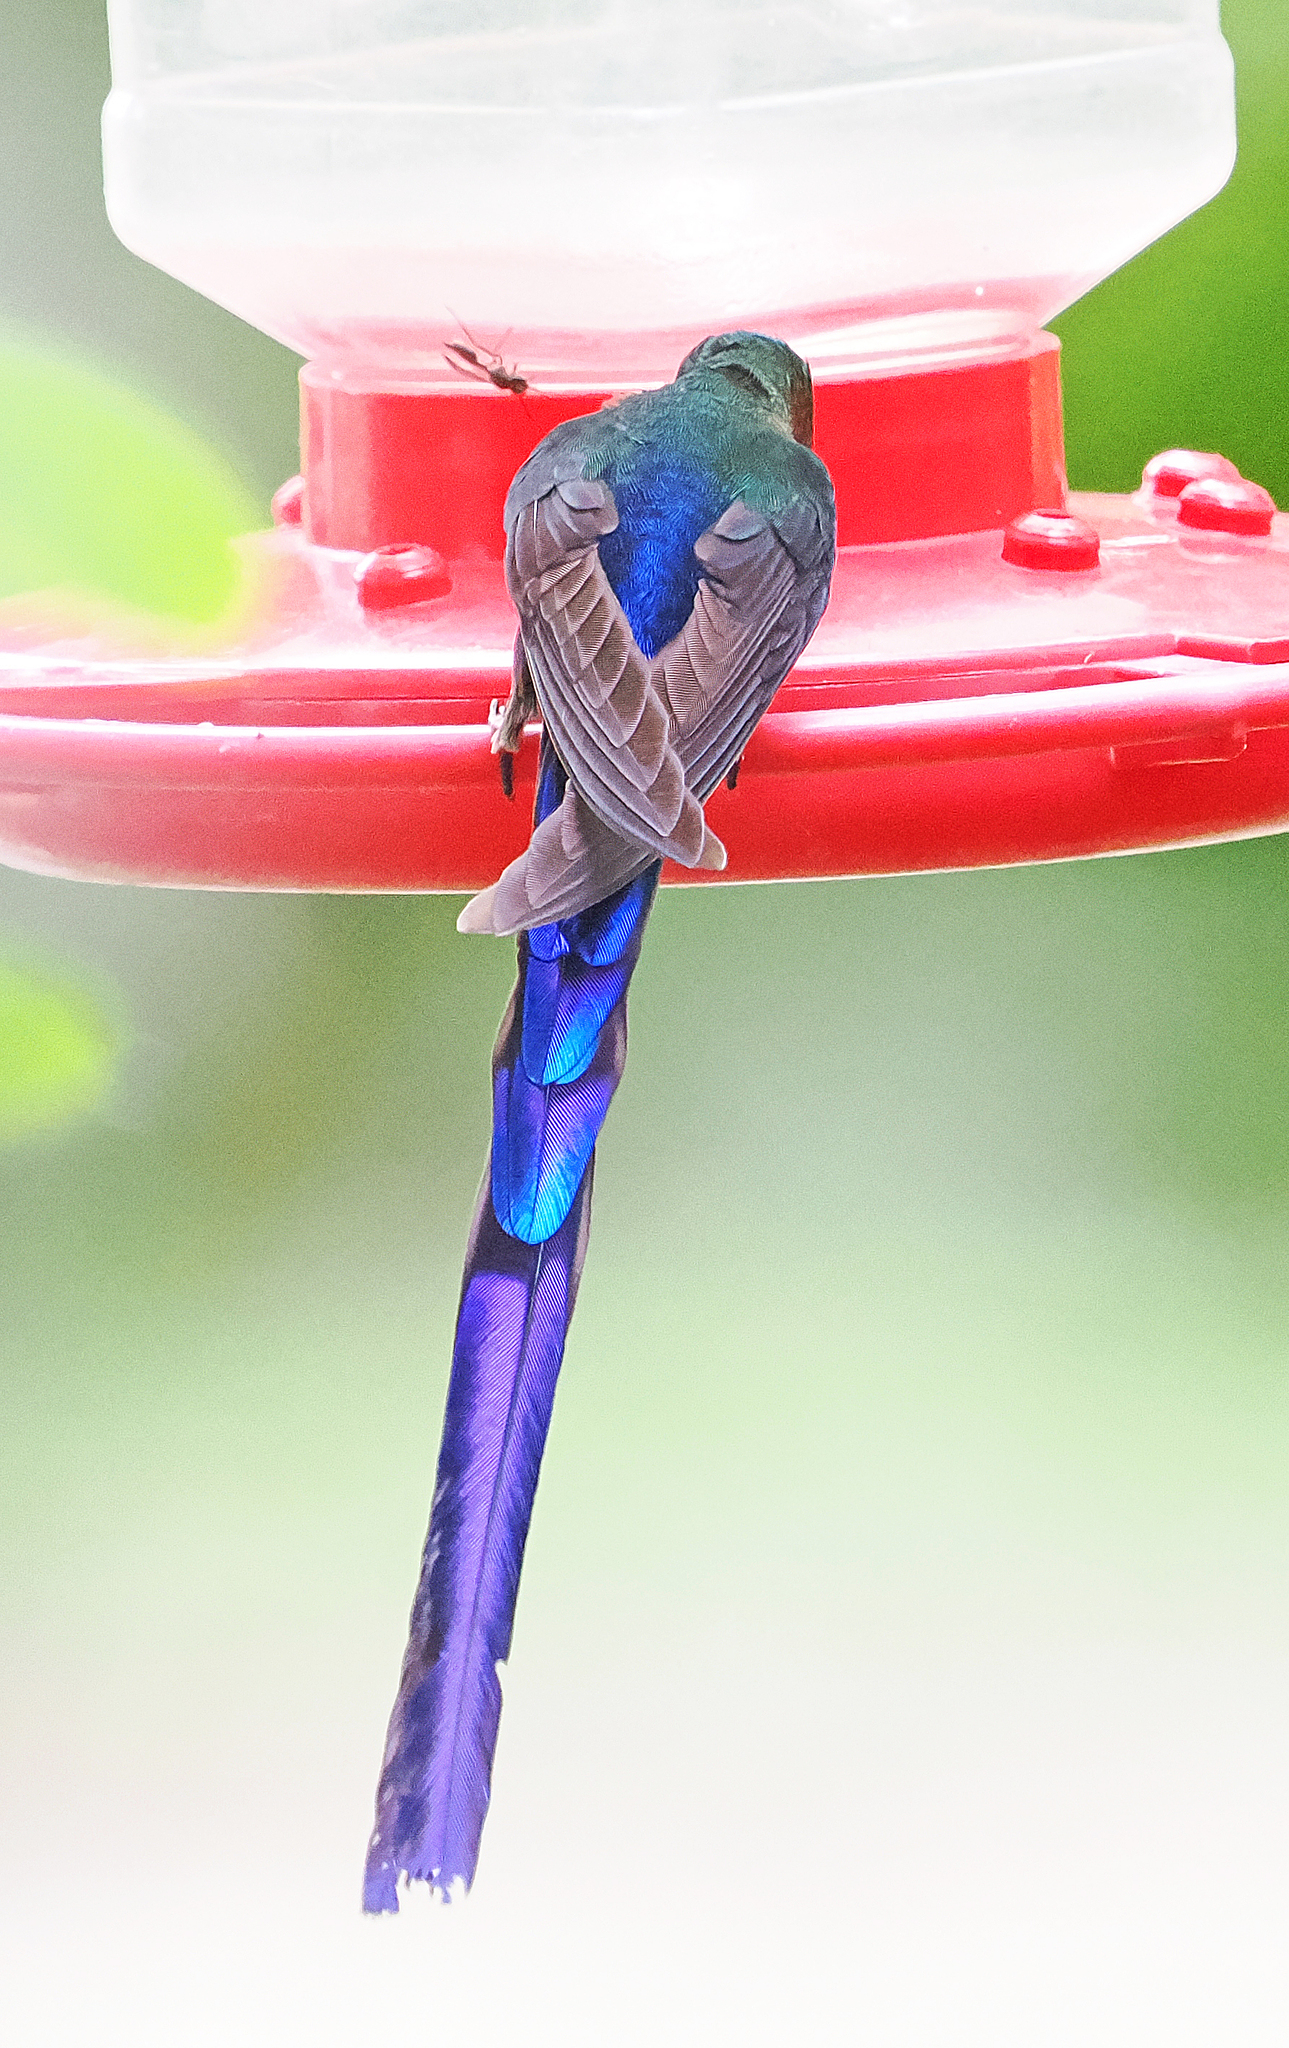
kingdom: Animalia
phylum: Chordata
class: Aves
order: Apodiformes
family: Trochilidae
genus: Aglaiocercus
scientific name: Aglaiocercus coelestis
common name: Violet-tailed sylph
